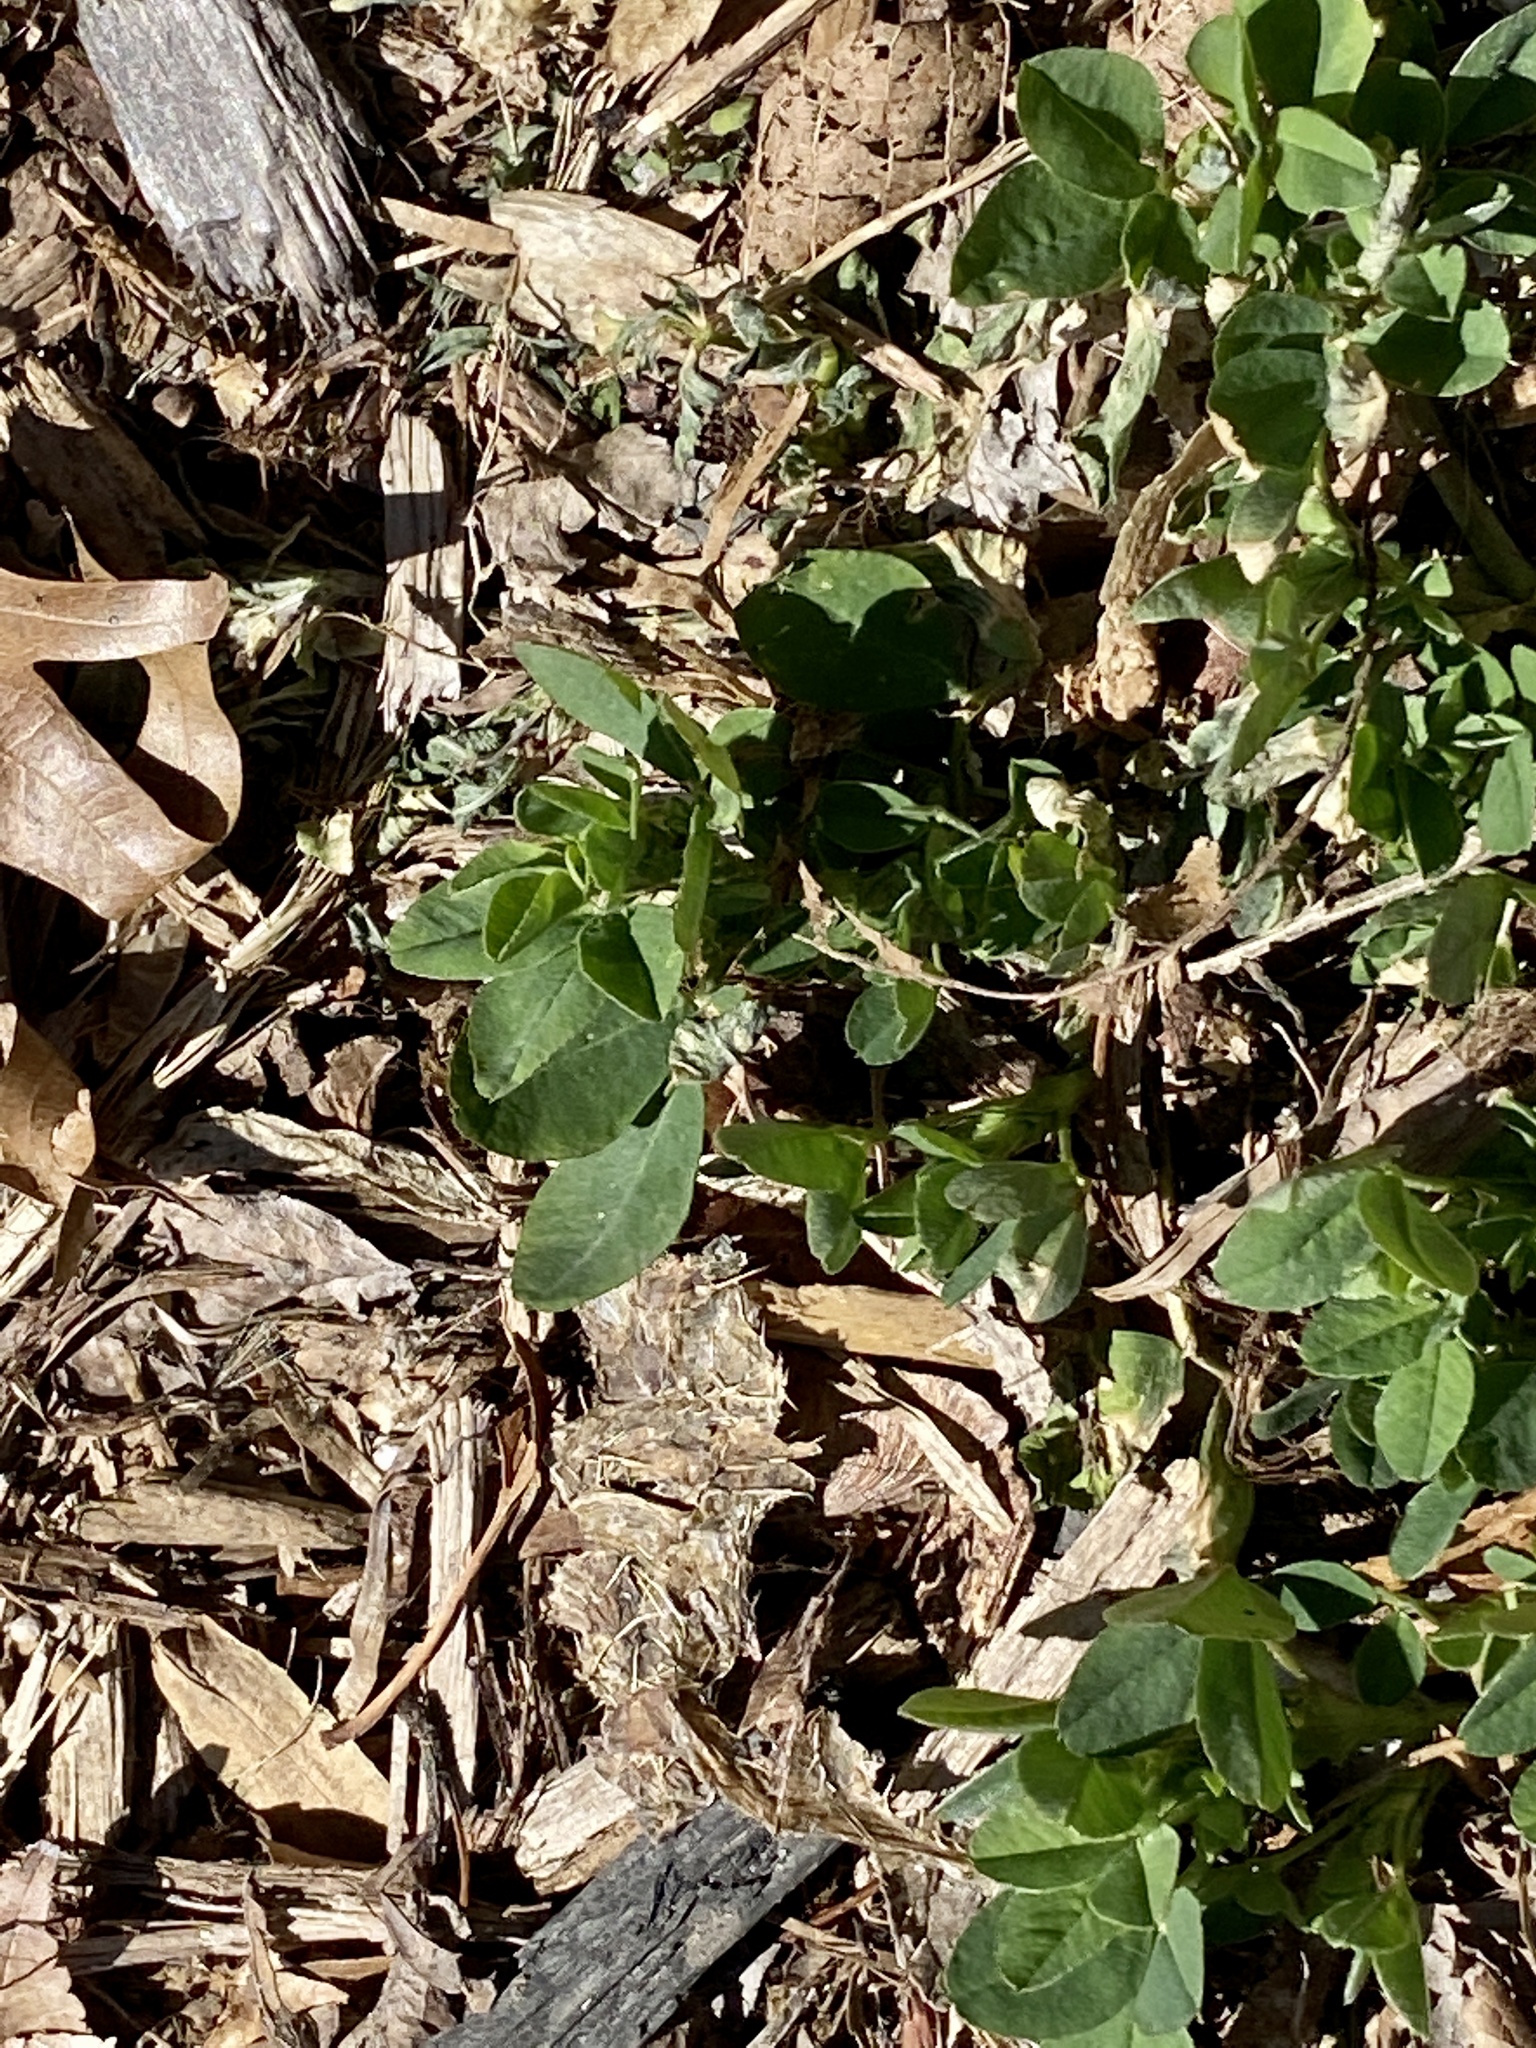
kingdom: Plantae
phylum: Tracheophyta
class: Magnoliopsida
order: Fabales
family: Fabaceae
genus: Medicago
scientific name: Medicago lupulina
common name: Black medick
